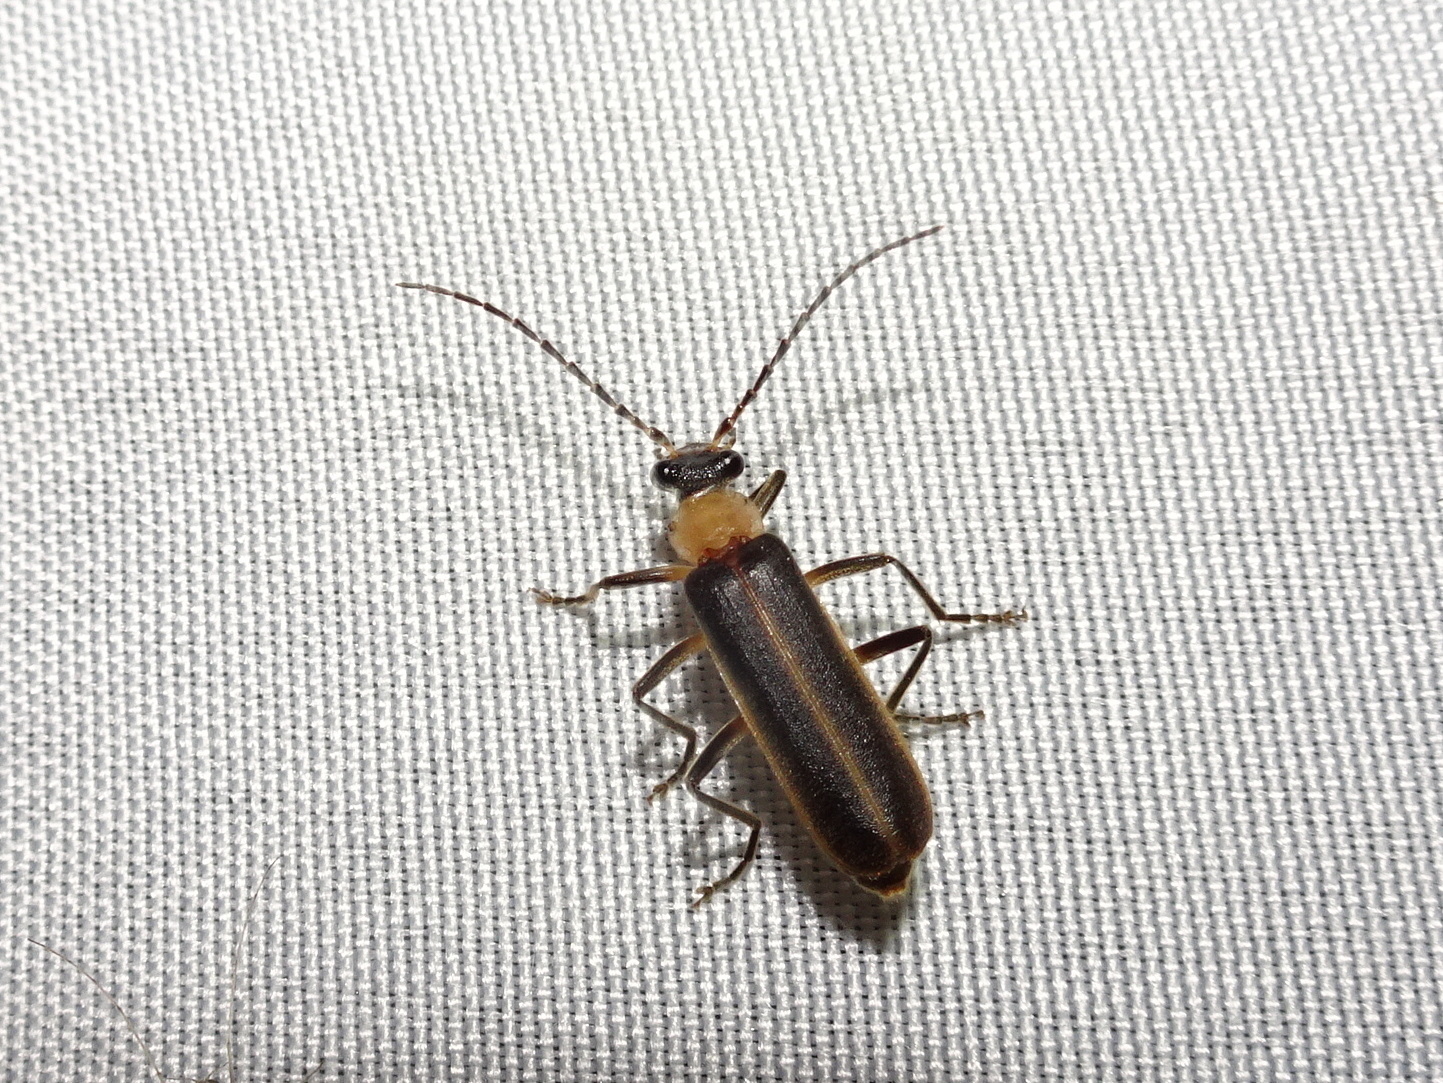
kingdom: Animalia
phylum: Arthropoda
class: Insecta
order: Coleoptera
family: Cantharidae
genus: Podabrus
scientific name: Podabrus flavicollis
